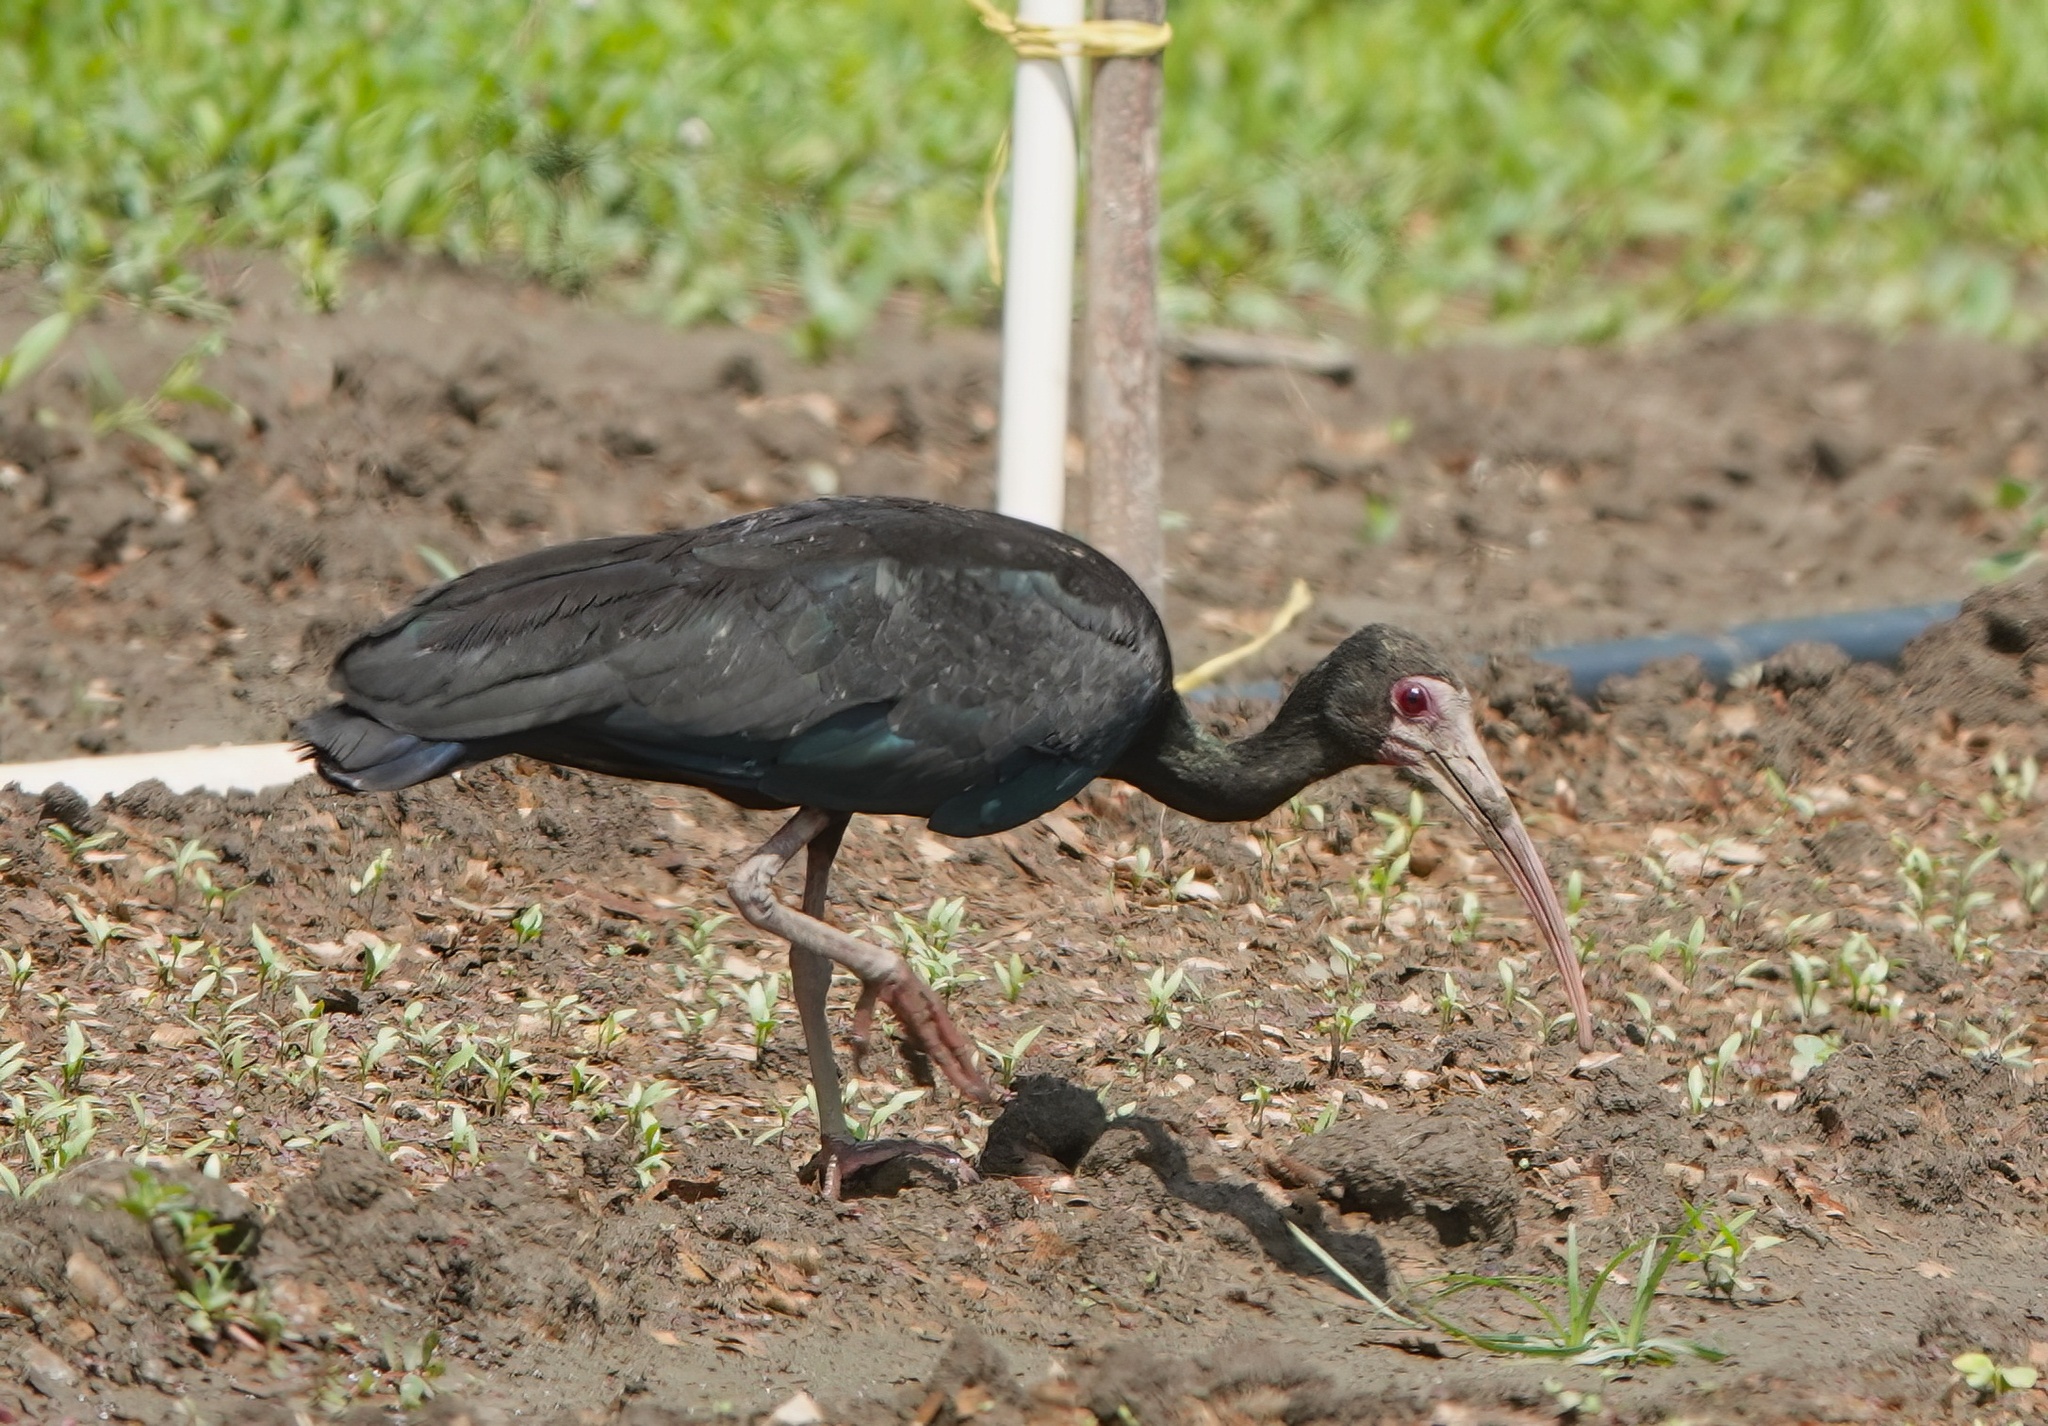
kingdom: Animalia
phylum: Chordata
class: Aves
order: Pelecaniformes
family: Threskiornithidae
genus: Phimosus
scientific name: Phimosus infuscatus
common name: Bare-faced ibis
